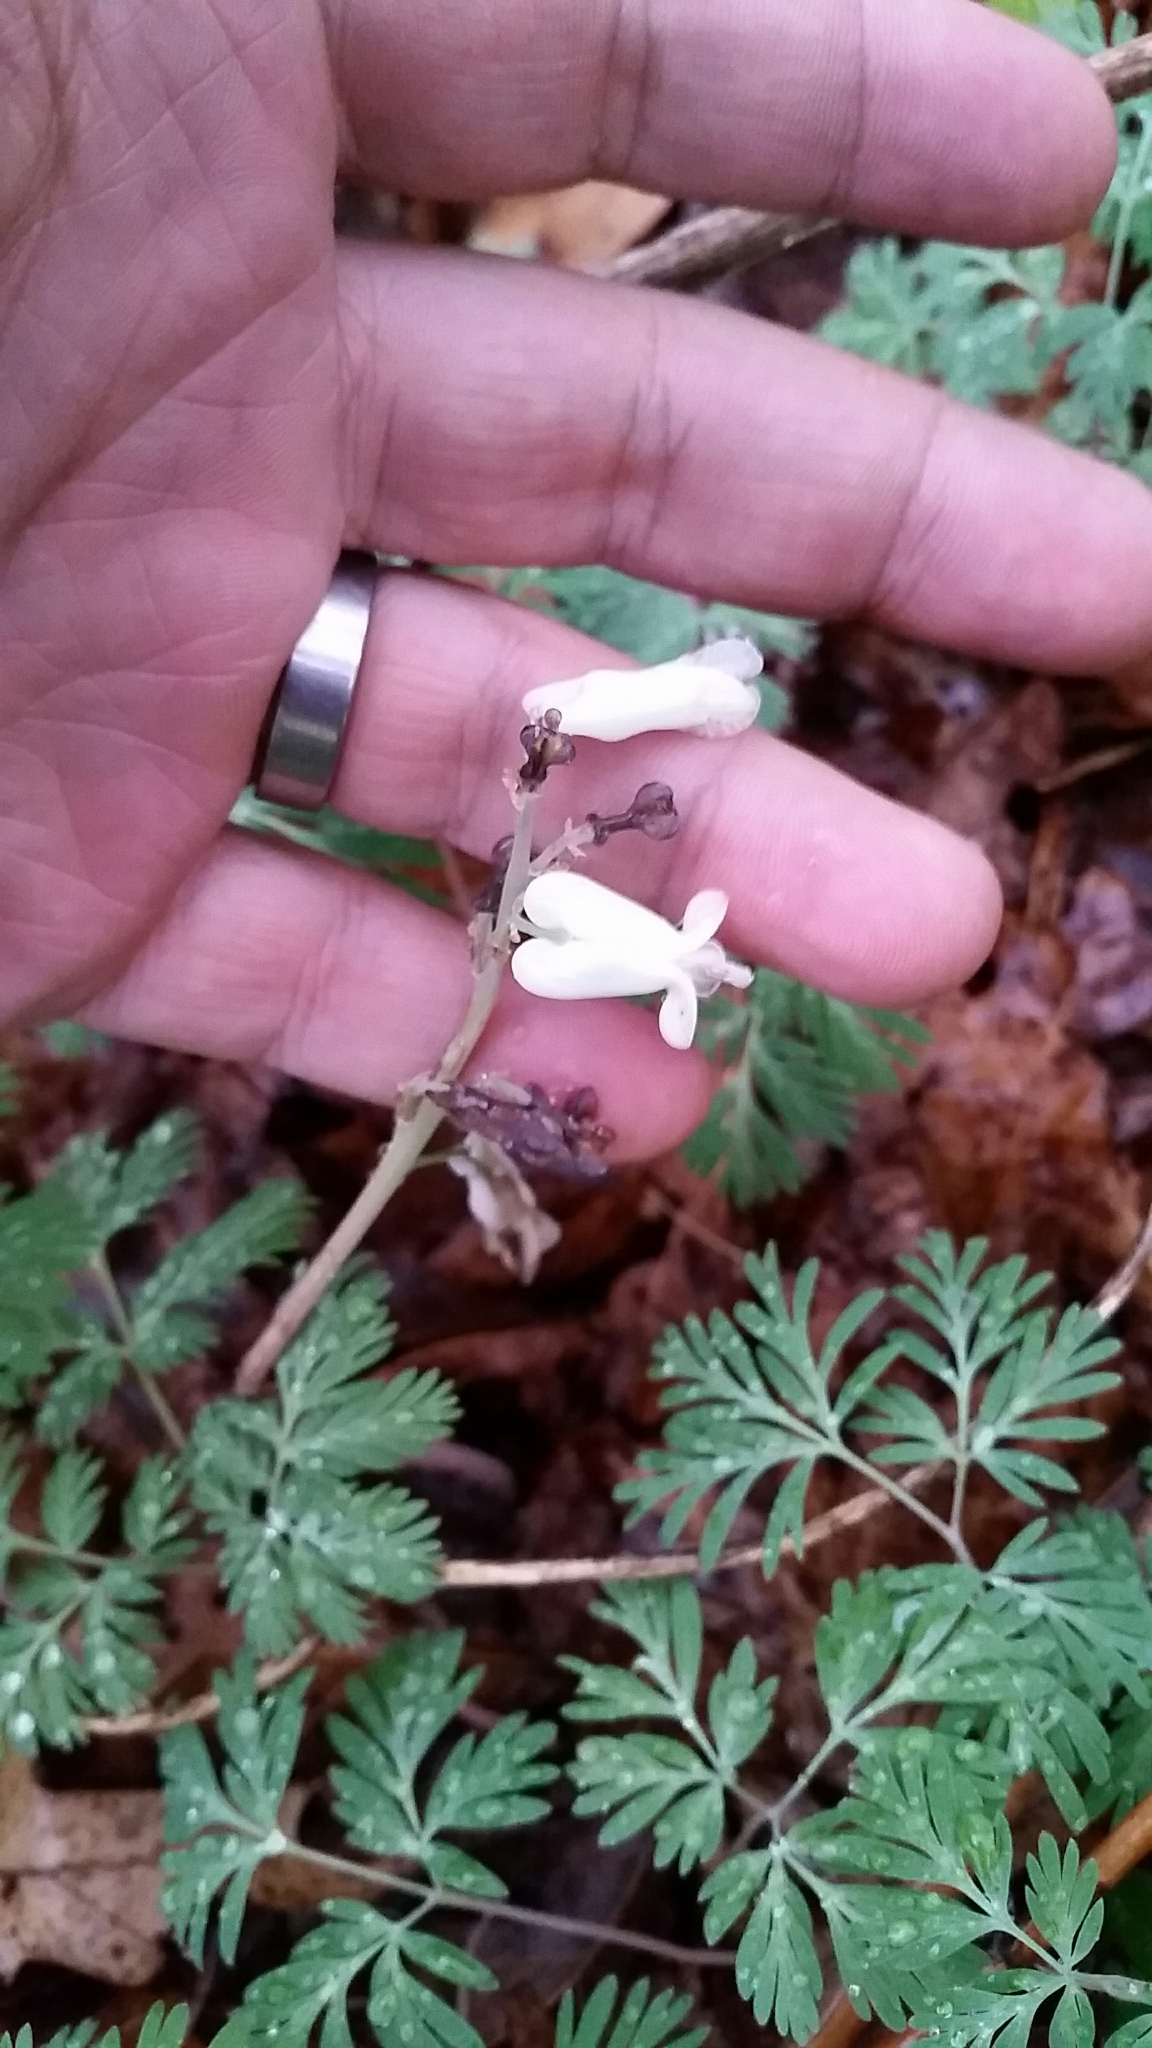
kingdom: Plantae
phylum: Tracheophyta
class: Magnoliopsida
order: Ranunculales
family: Papaveraceae
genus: Dicentra
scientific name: Dicentra canadensis
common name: Squirrel-corn
